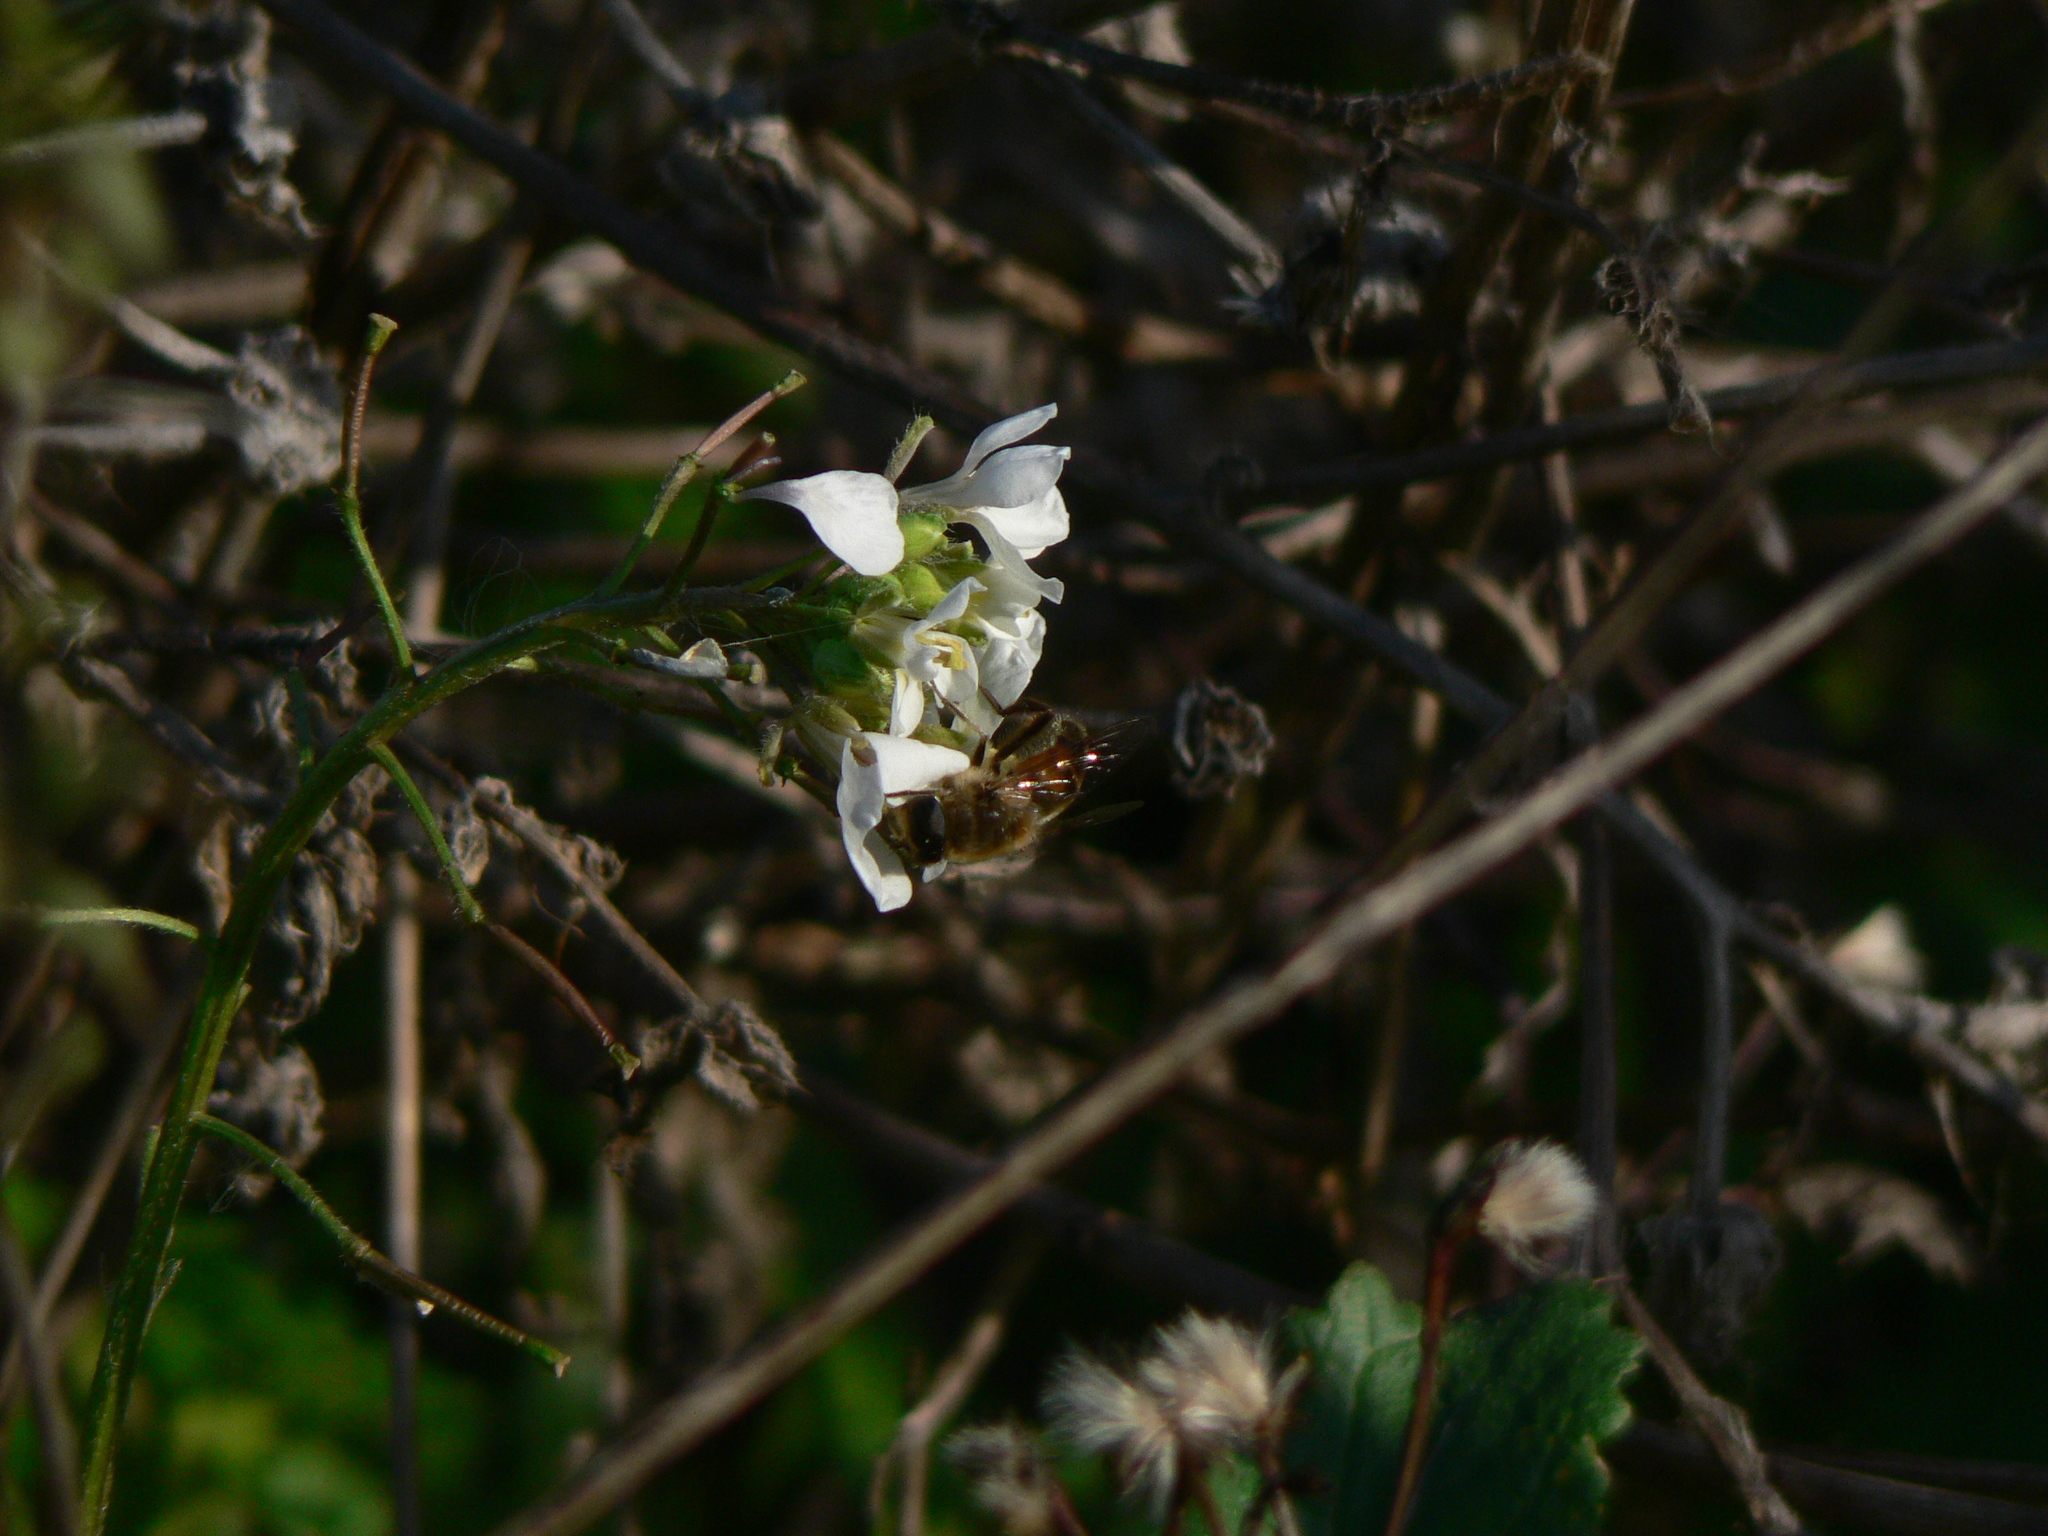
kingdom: Animalia
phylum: Arthropoda
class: Insecta
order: Diptera
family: Syrphidae
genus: Eristalis
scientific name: Eristalis tenax
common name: Drone fly
